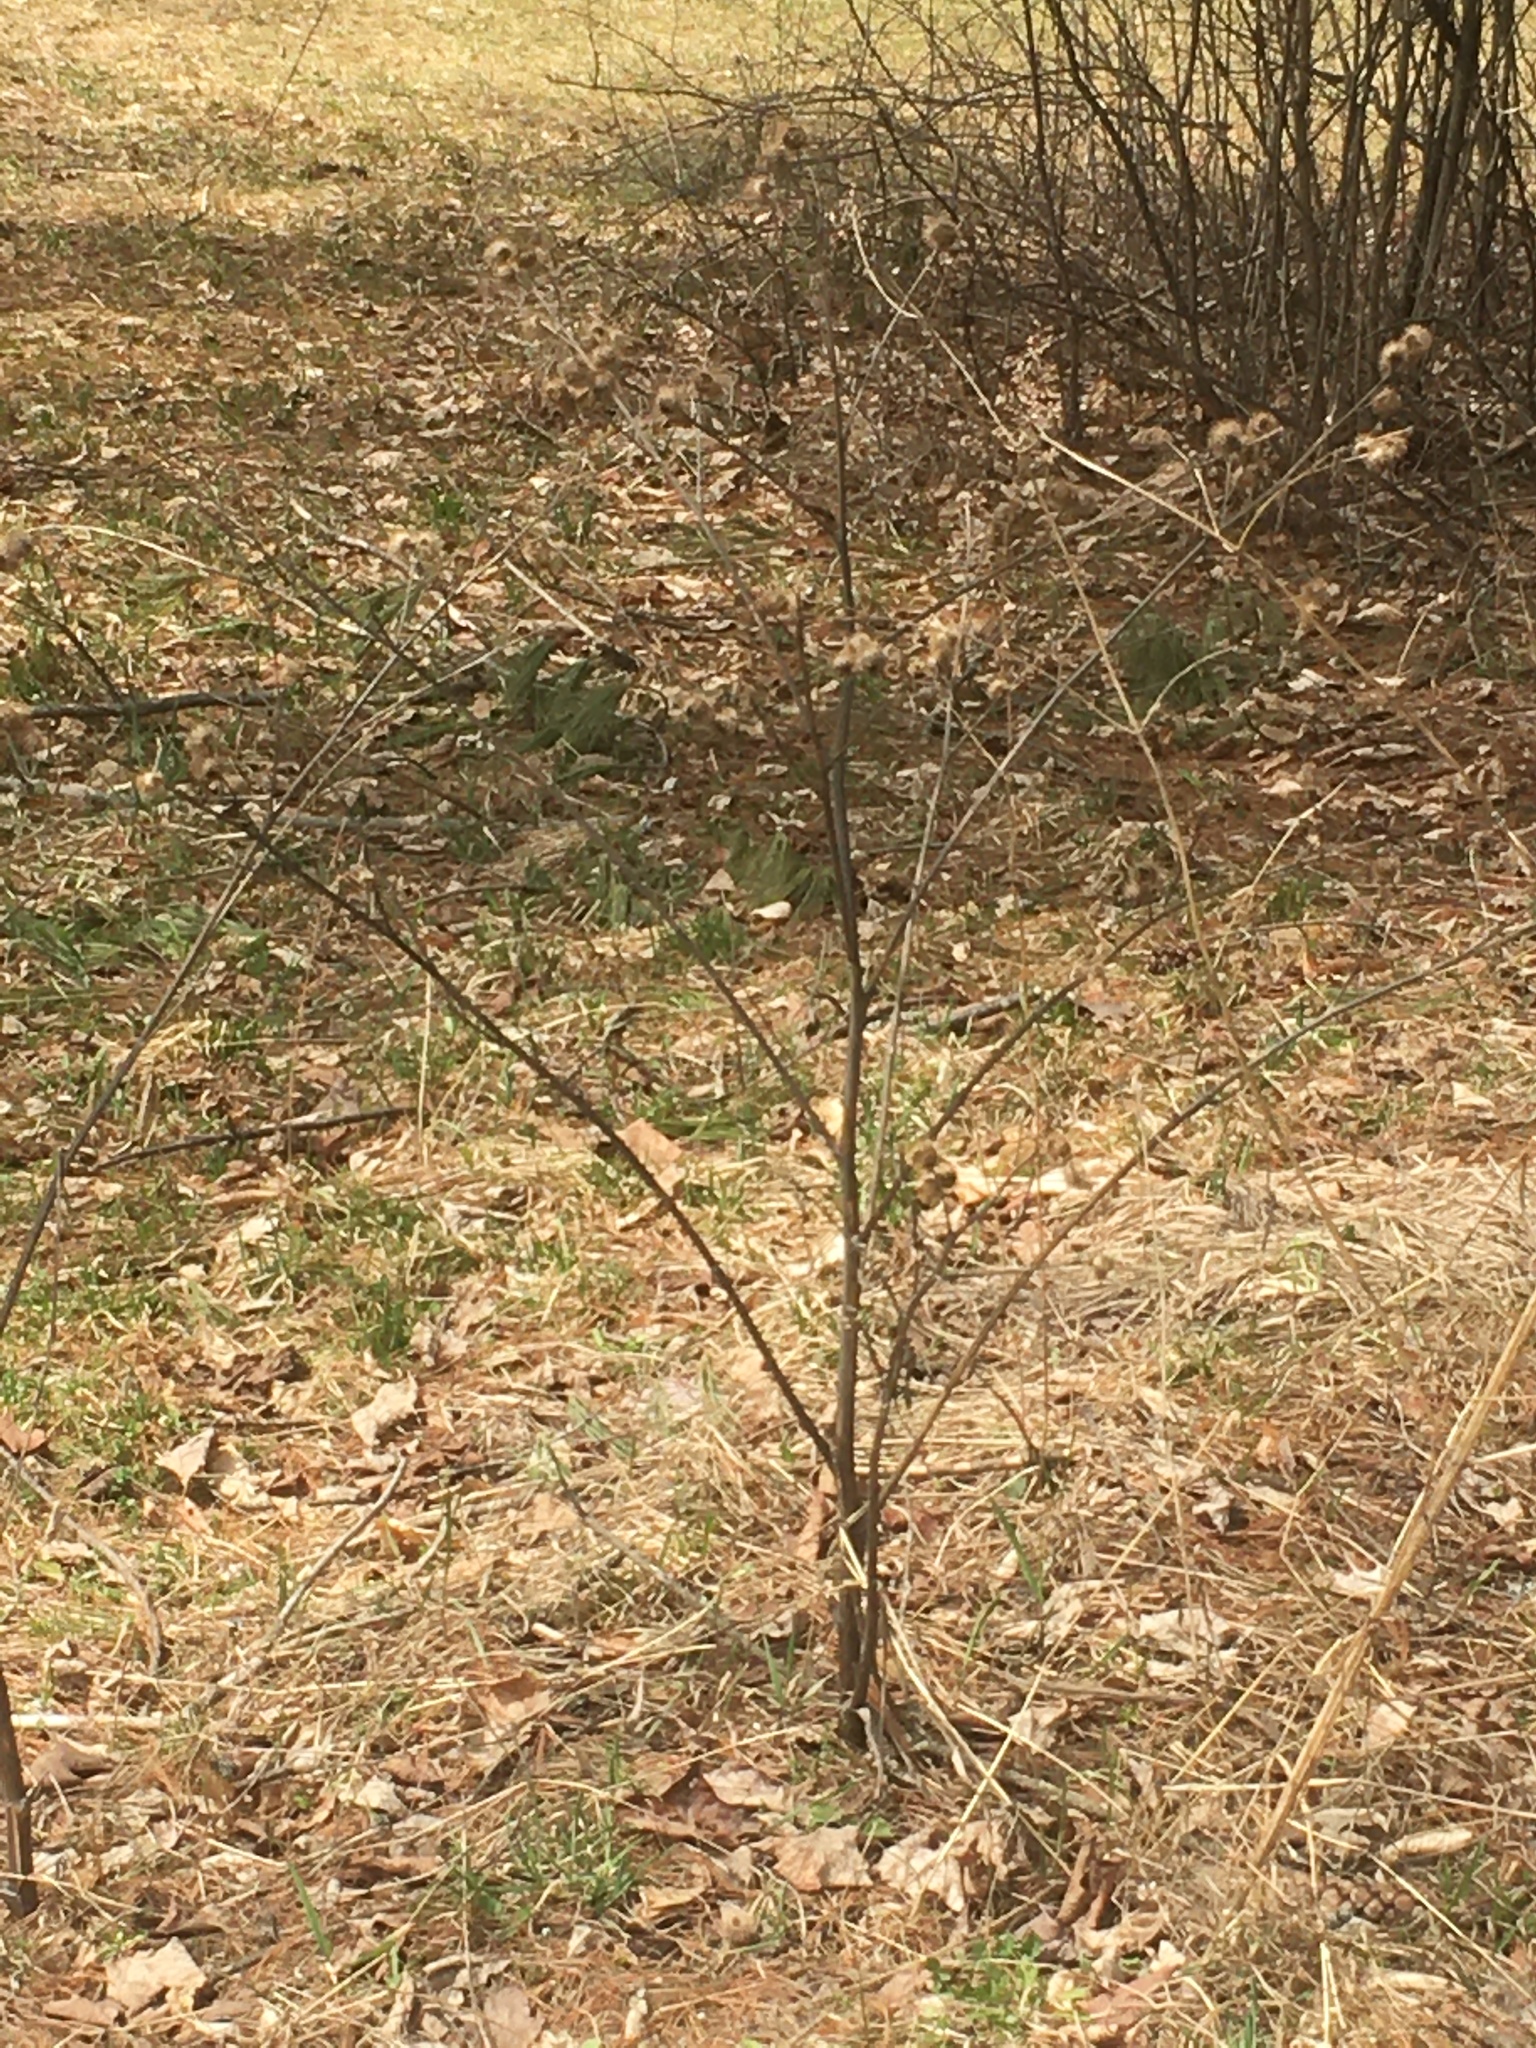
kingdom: Plantae
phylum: Tracheophyta
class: Magnoliopsida
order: Asterales
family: Asteraceae
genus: Arctium
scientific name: Arctium minus
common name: Lesser burdock
